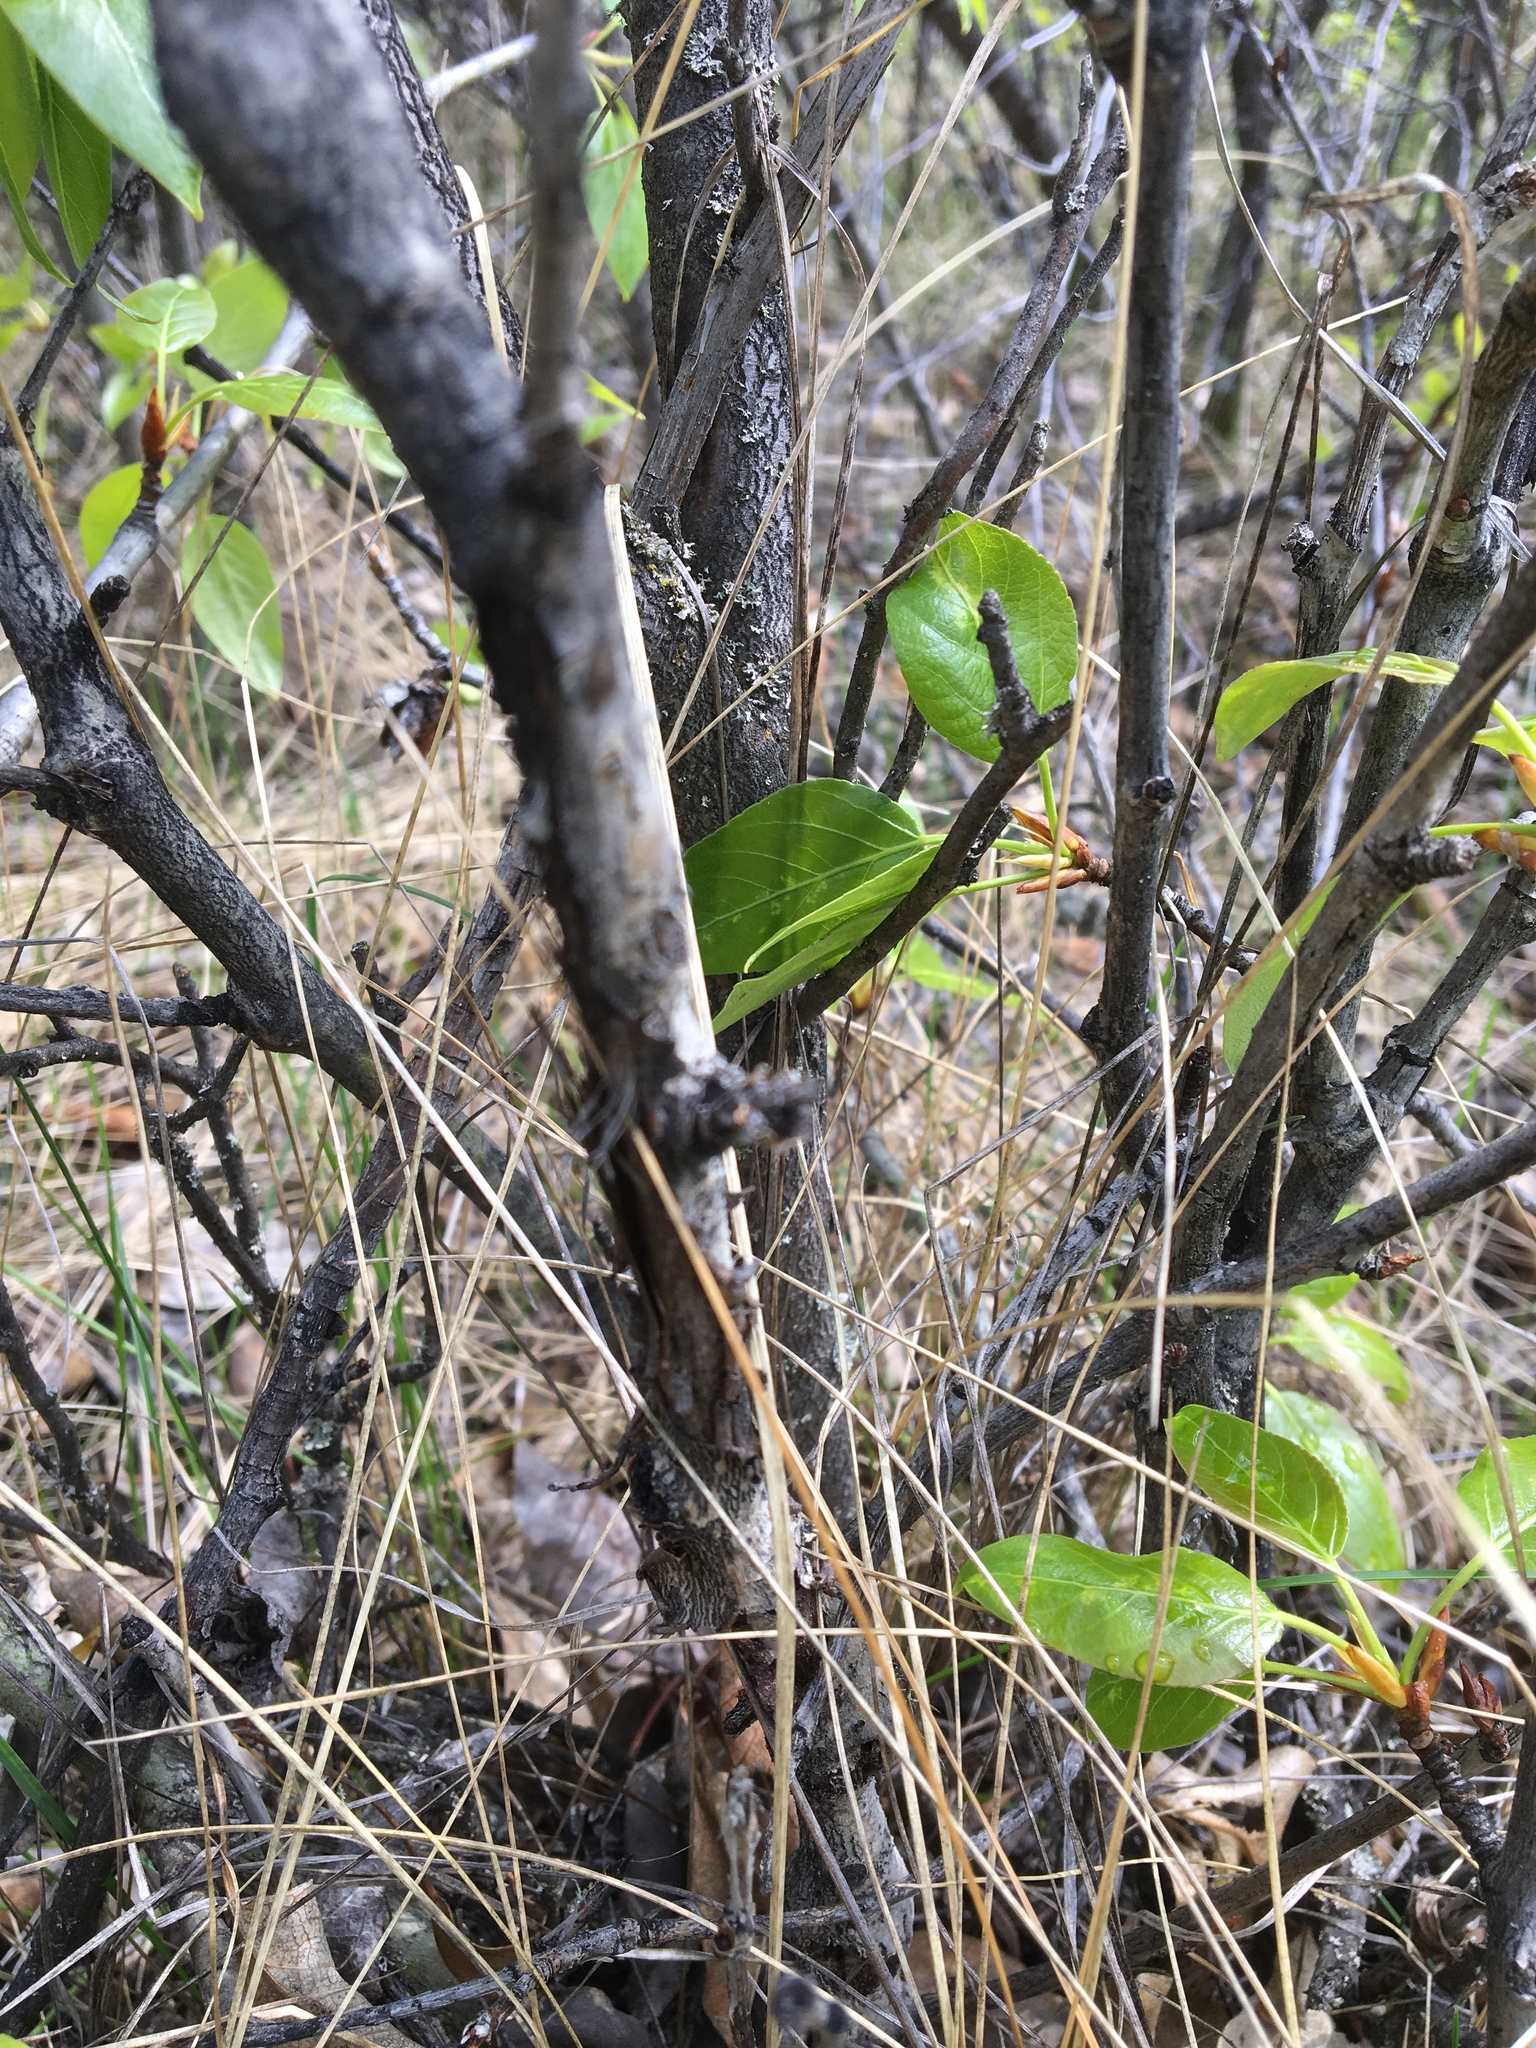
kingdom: Plantae
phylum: Tracheophyta
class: Magnoliopsida
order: Rosales
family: Elaeagnaceae
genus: Elaeagnus
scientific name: Elaeagnus commutata
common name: Silverberry
